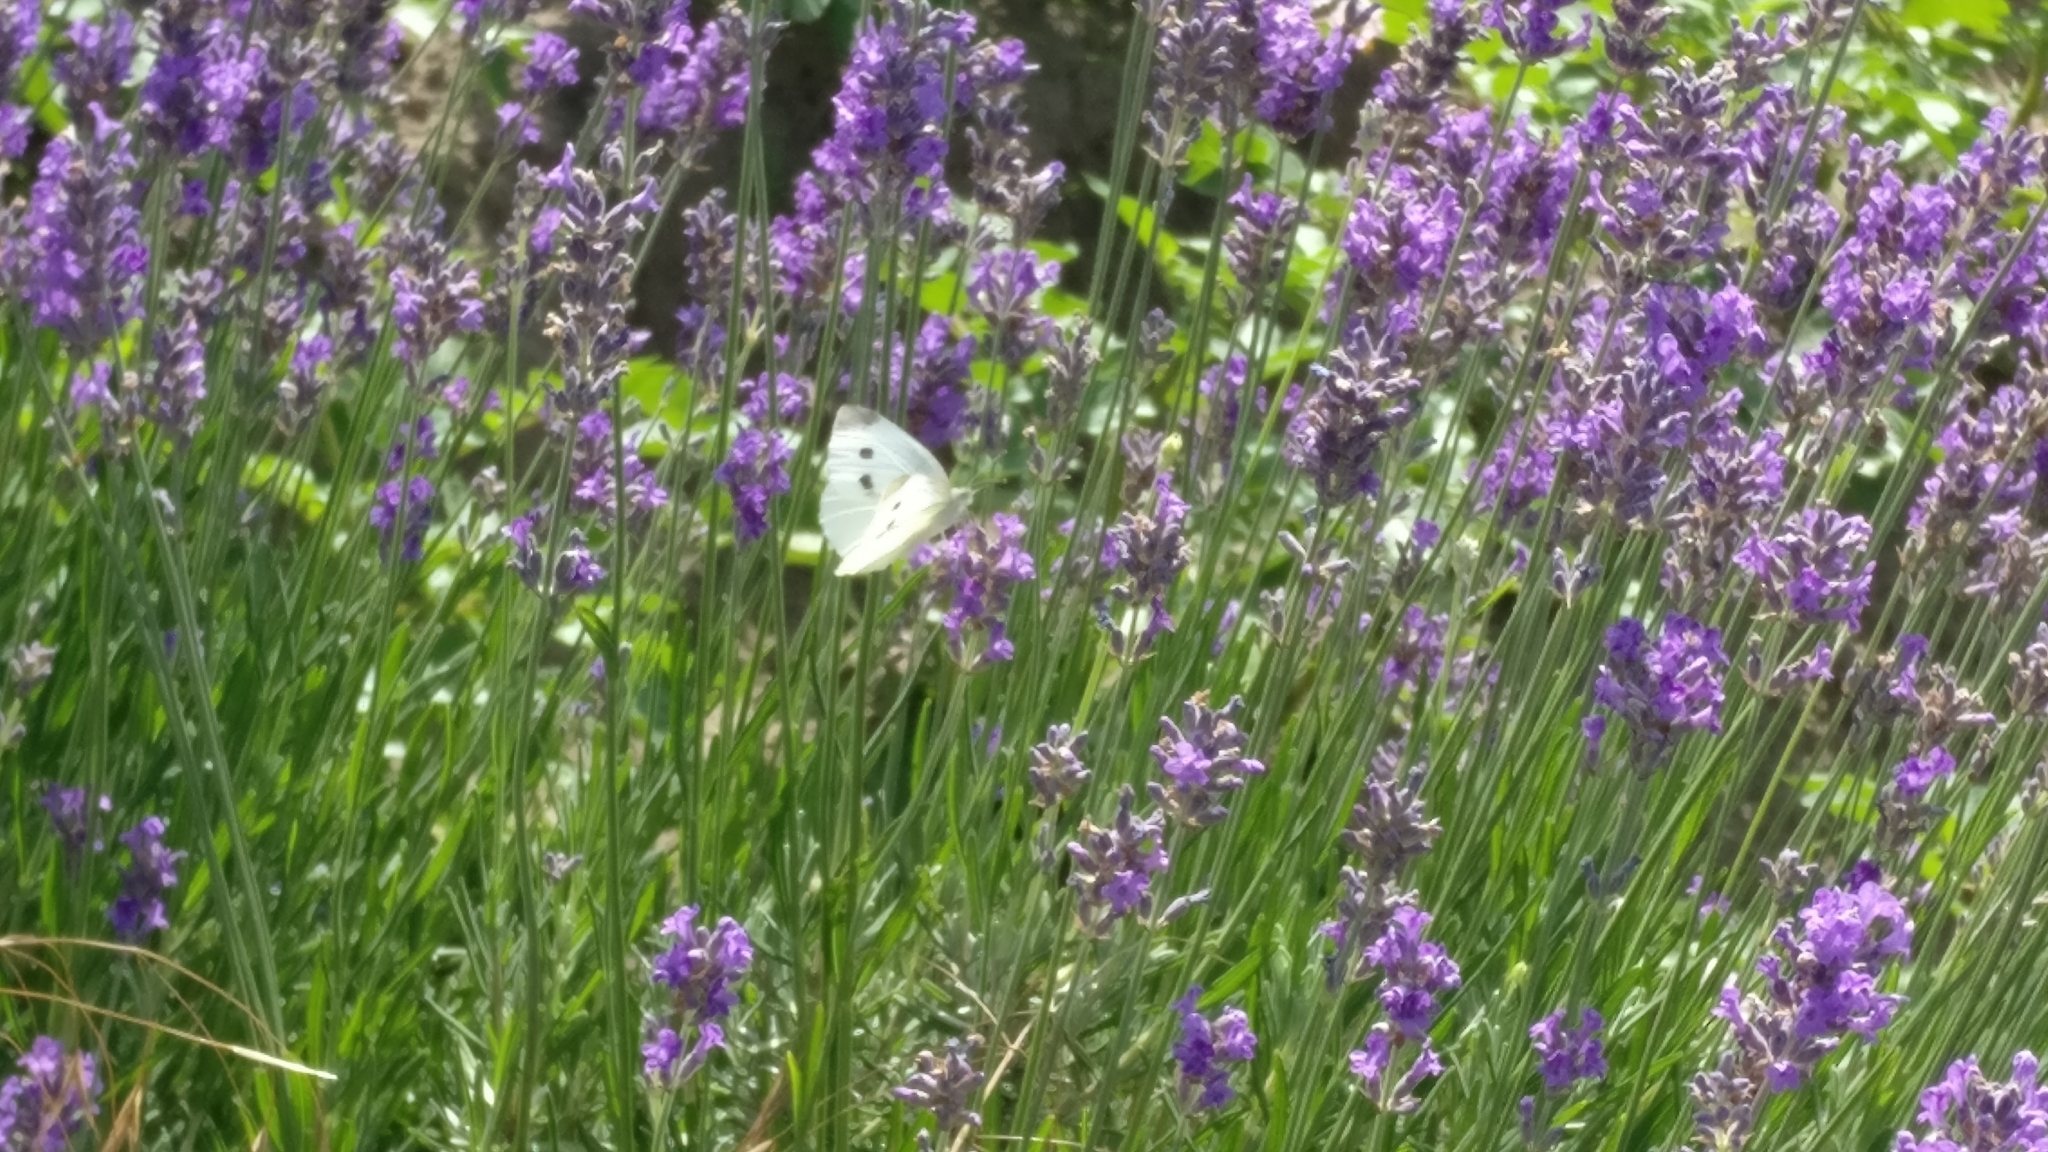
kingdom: Animalia
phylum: Arthropoda
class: Insecta
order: Lepidoptera
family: Pieridae
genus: Pieris
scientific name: Pieris rapae
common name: Small white
